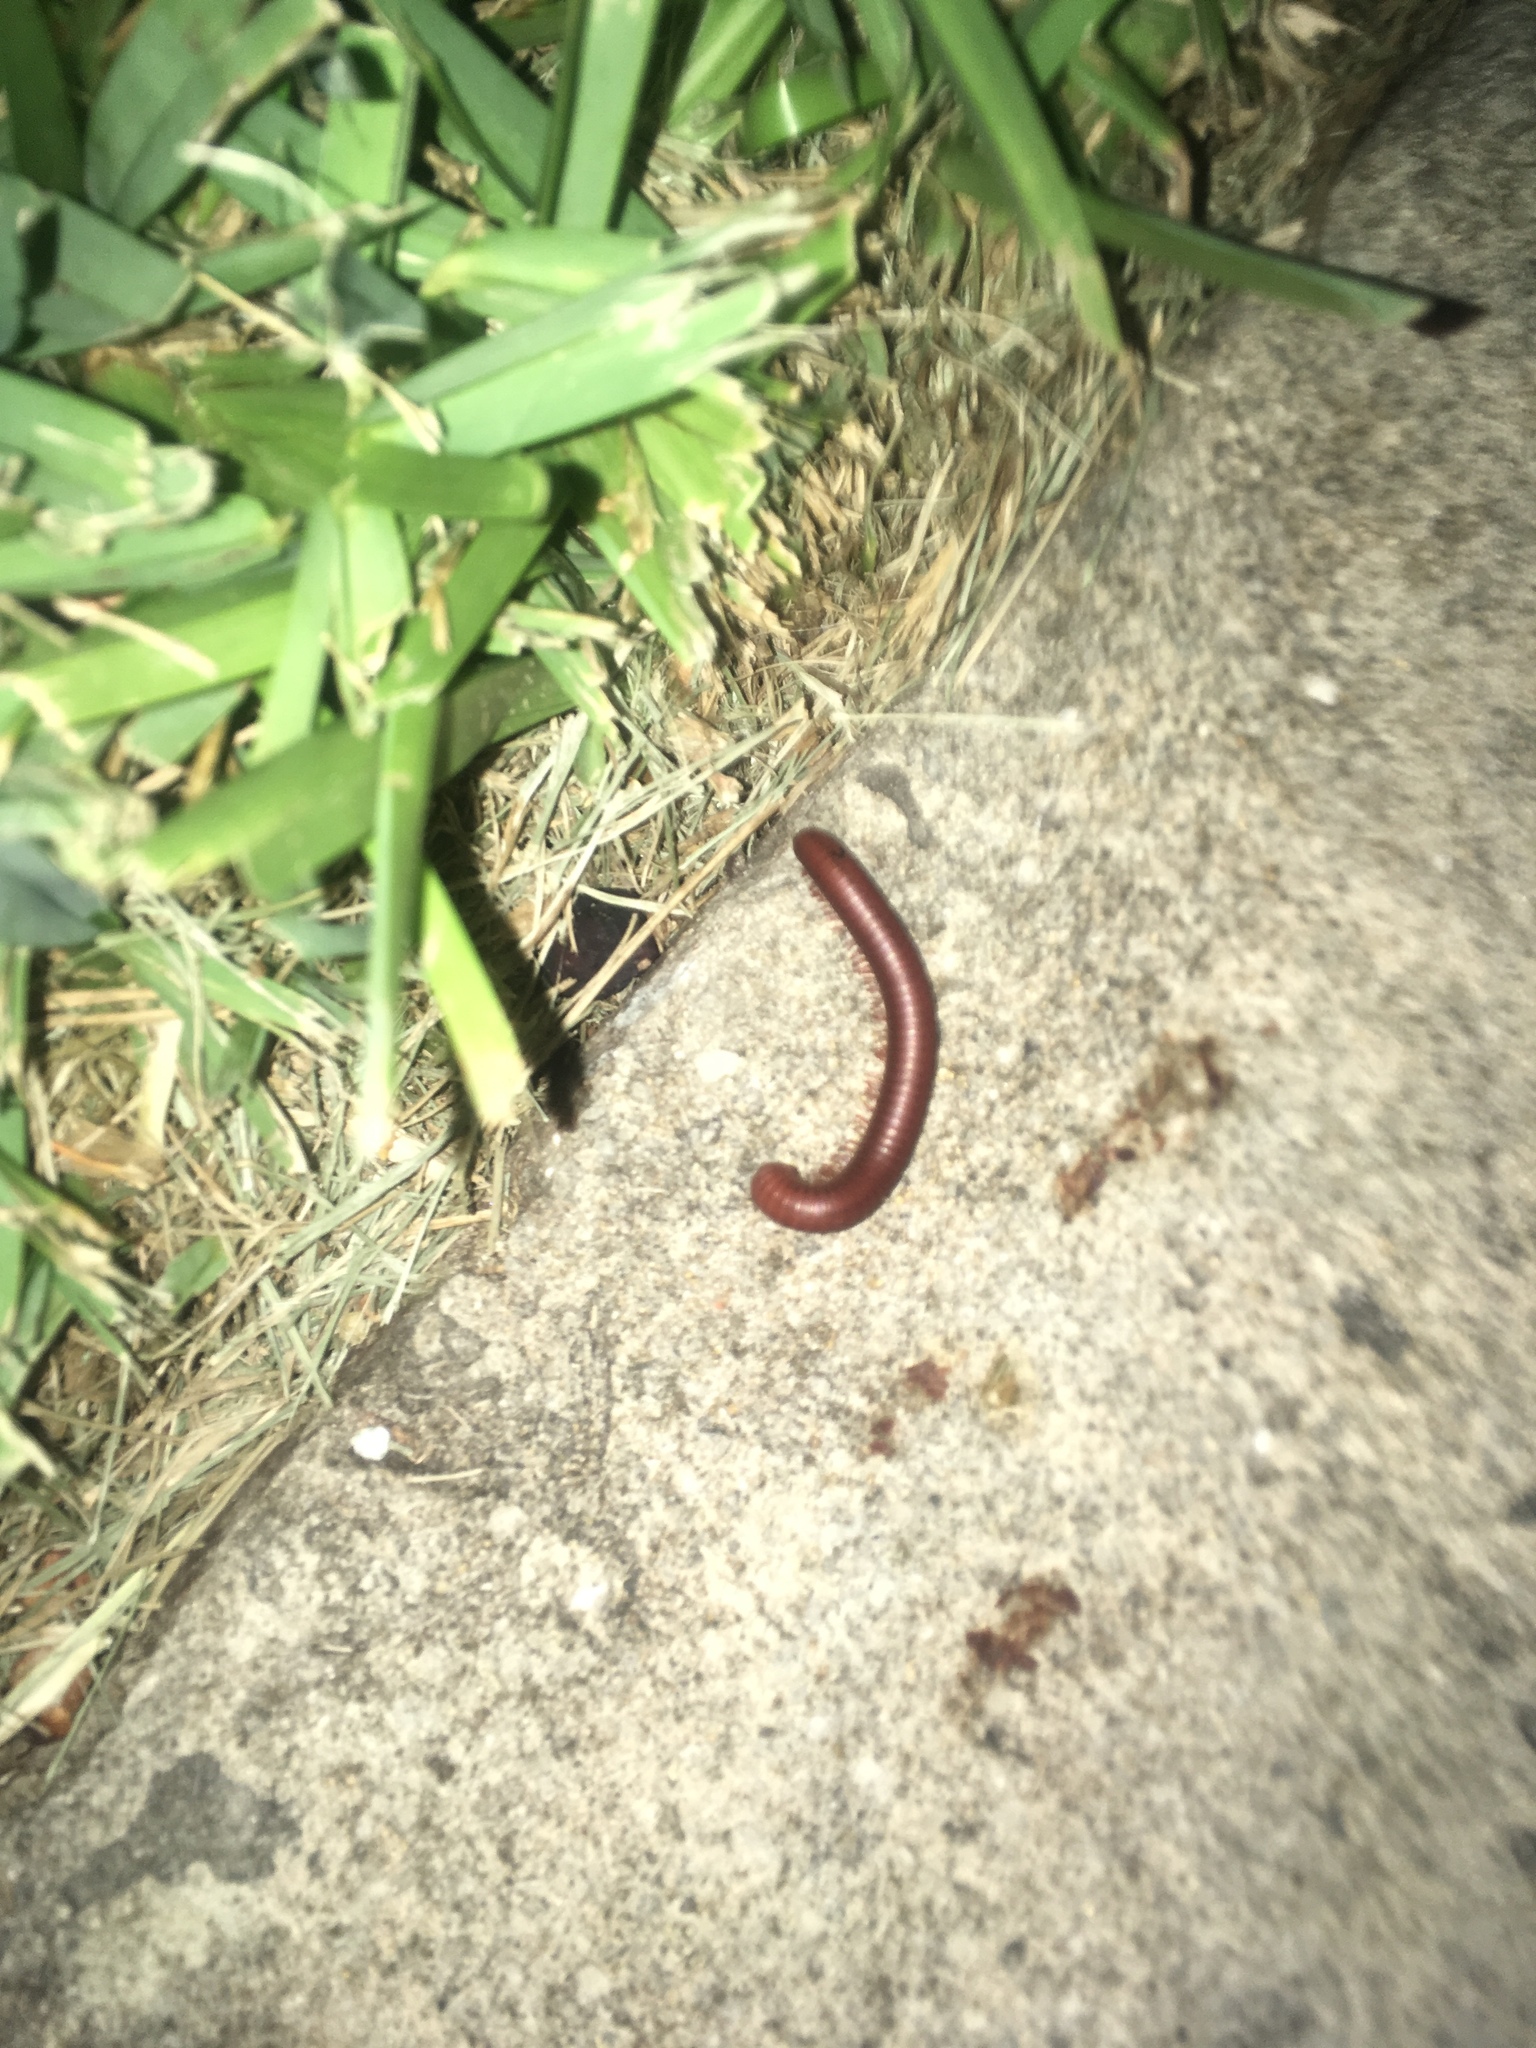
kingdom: Animalia
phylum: Arthropoda
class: Diplopoda
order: Spirobolida
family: Pachybolidae
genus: Trigoniulus
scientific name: Trigoniulus corallinus
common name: Millipede
